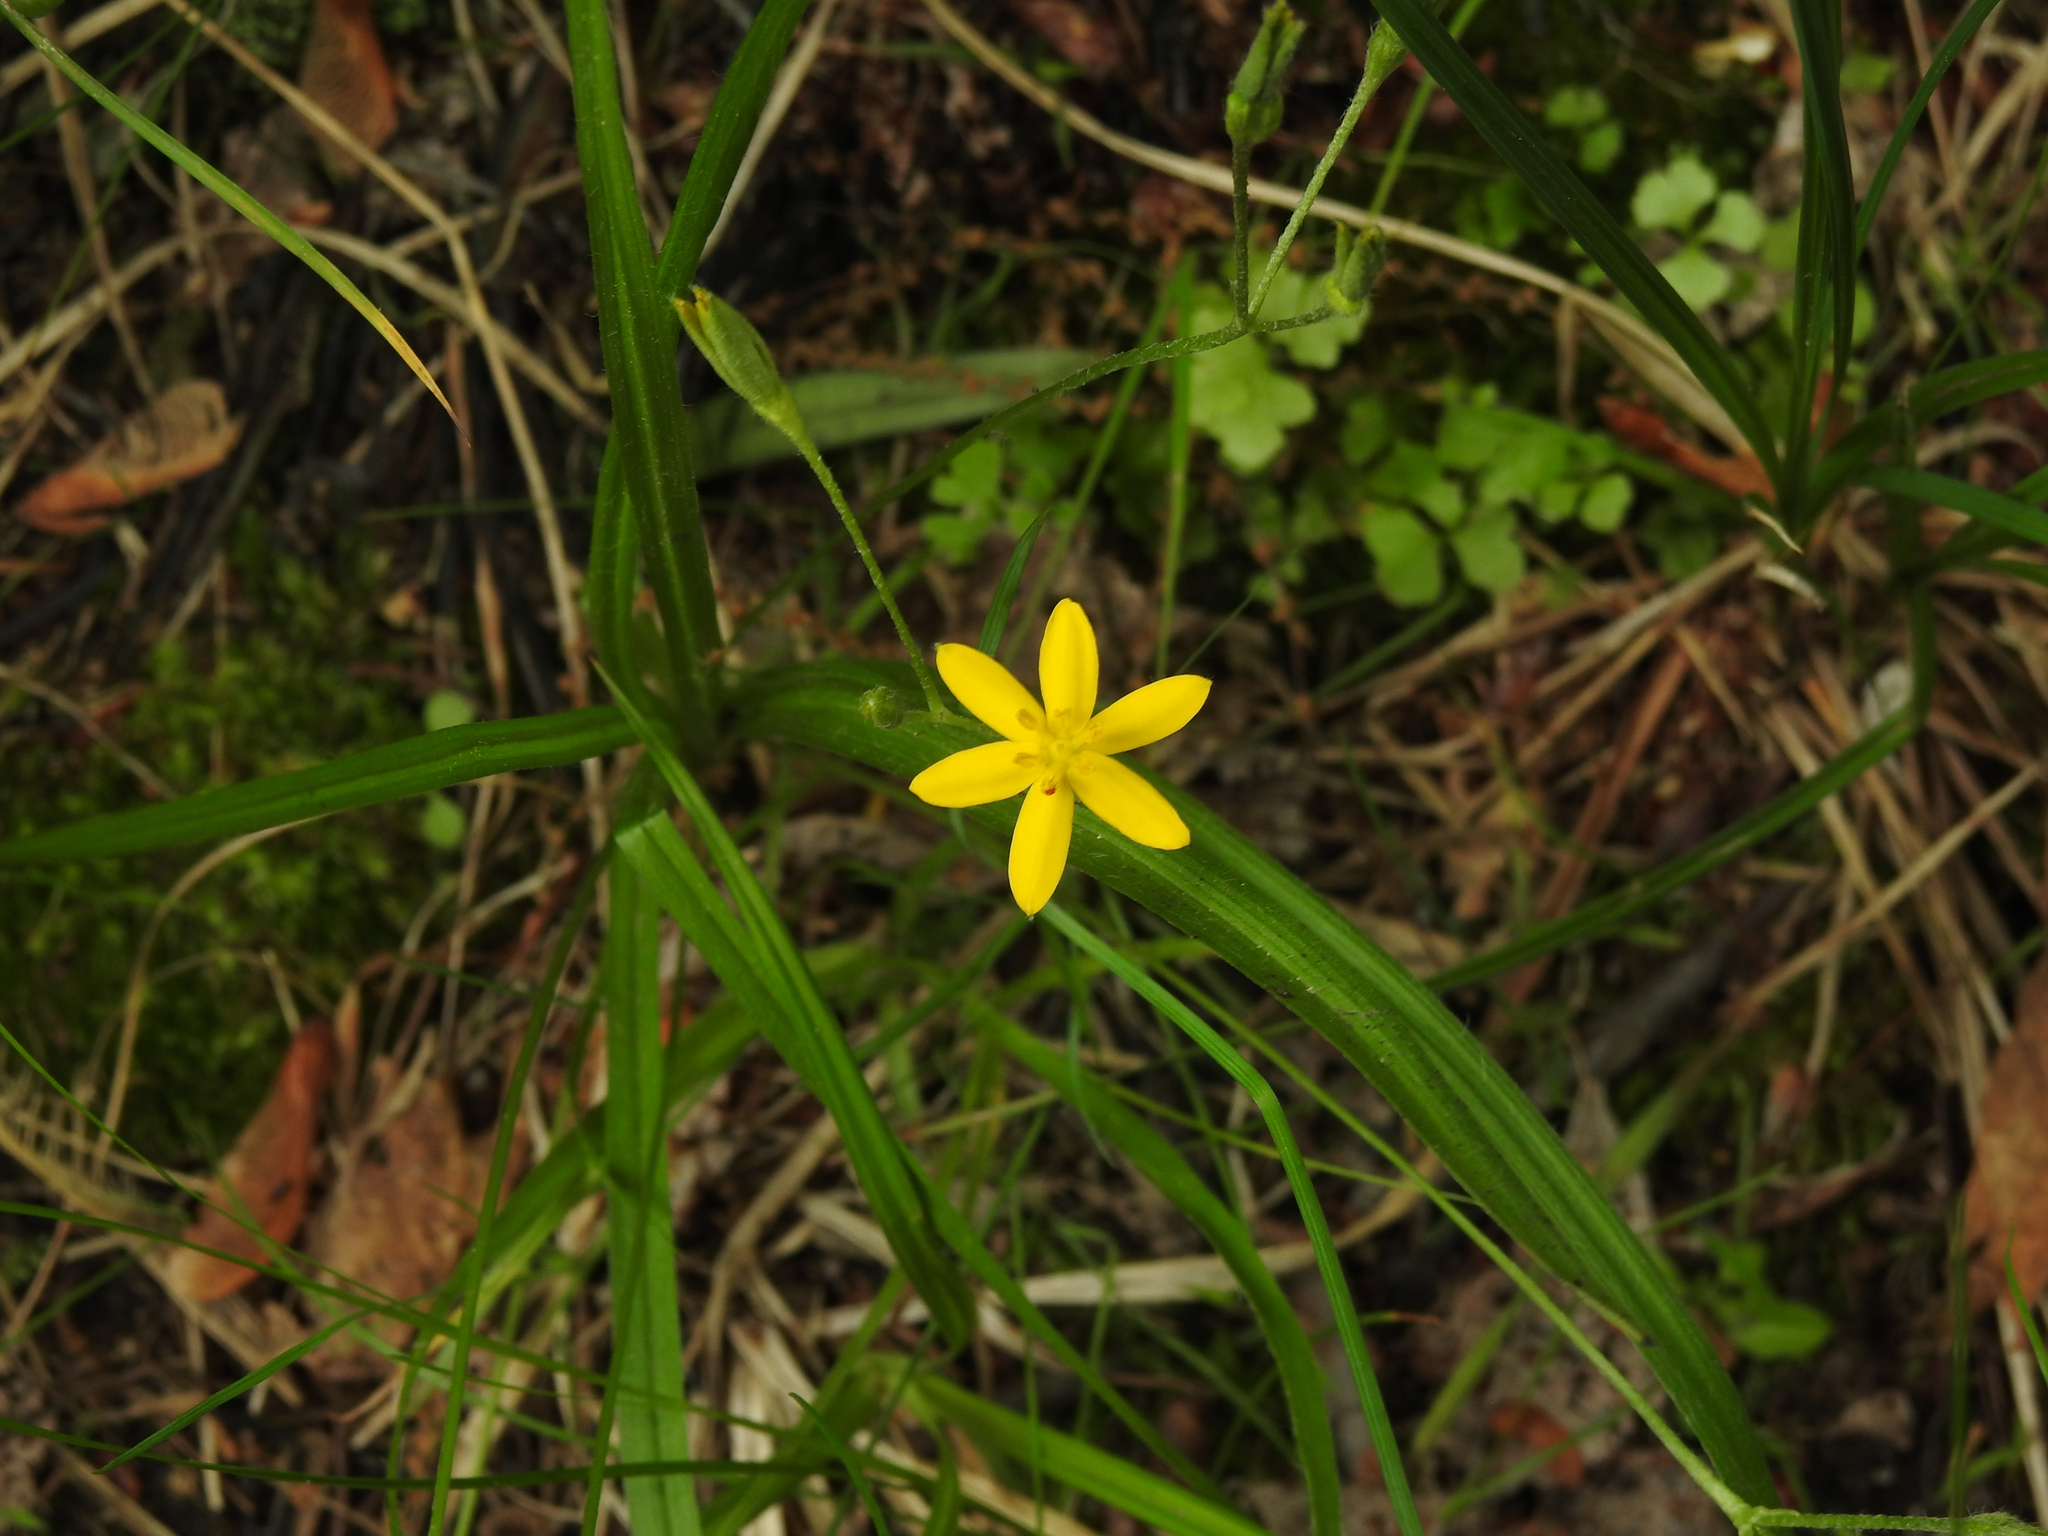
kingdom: Plantae
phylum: Tracheophyta
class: Liliopsida
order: Asparagales
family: Hypoxidaceae
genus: Hypoxis
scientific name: Hypoxis hirsuta
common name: Common goldstar
